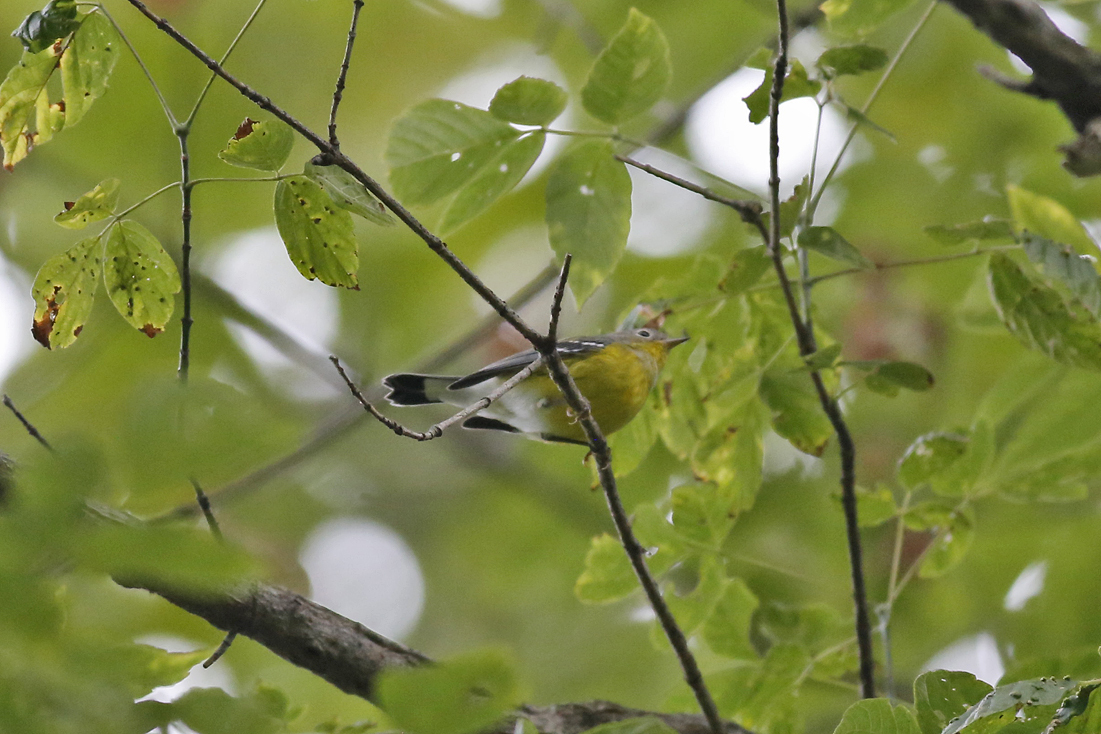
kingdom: Animalia
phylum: Chordata
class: Aves
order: Passeriformes
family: Parulidae
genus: Setophaga
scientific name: Setophaga magnolia
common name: Magnolia warbler
